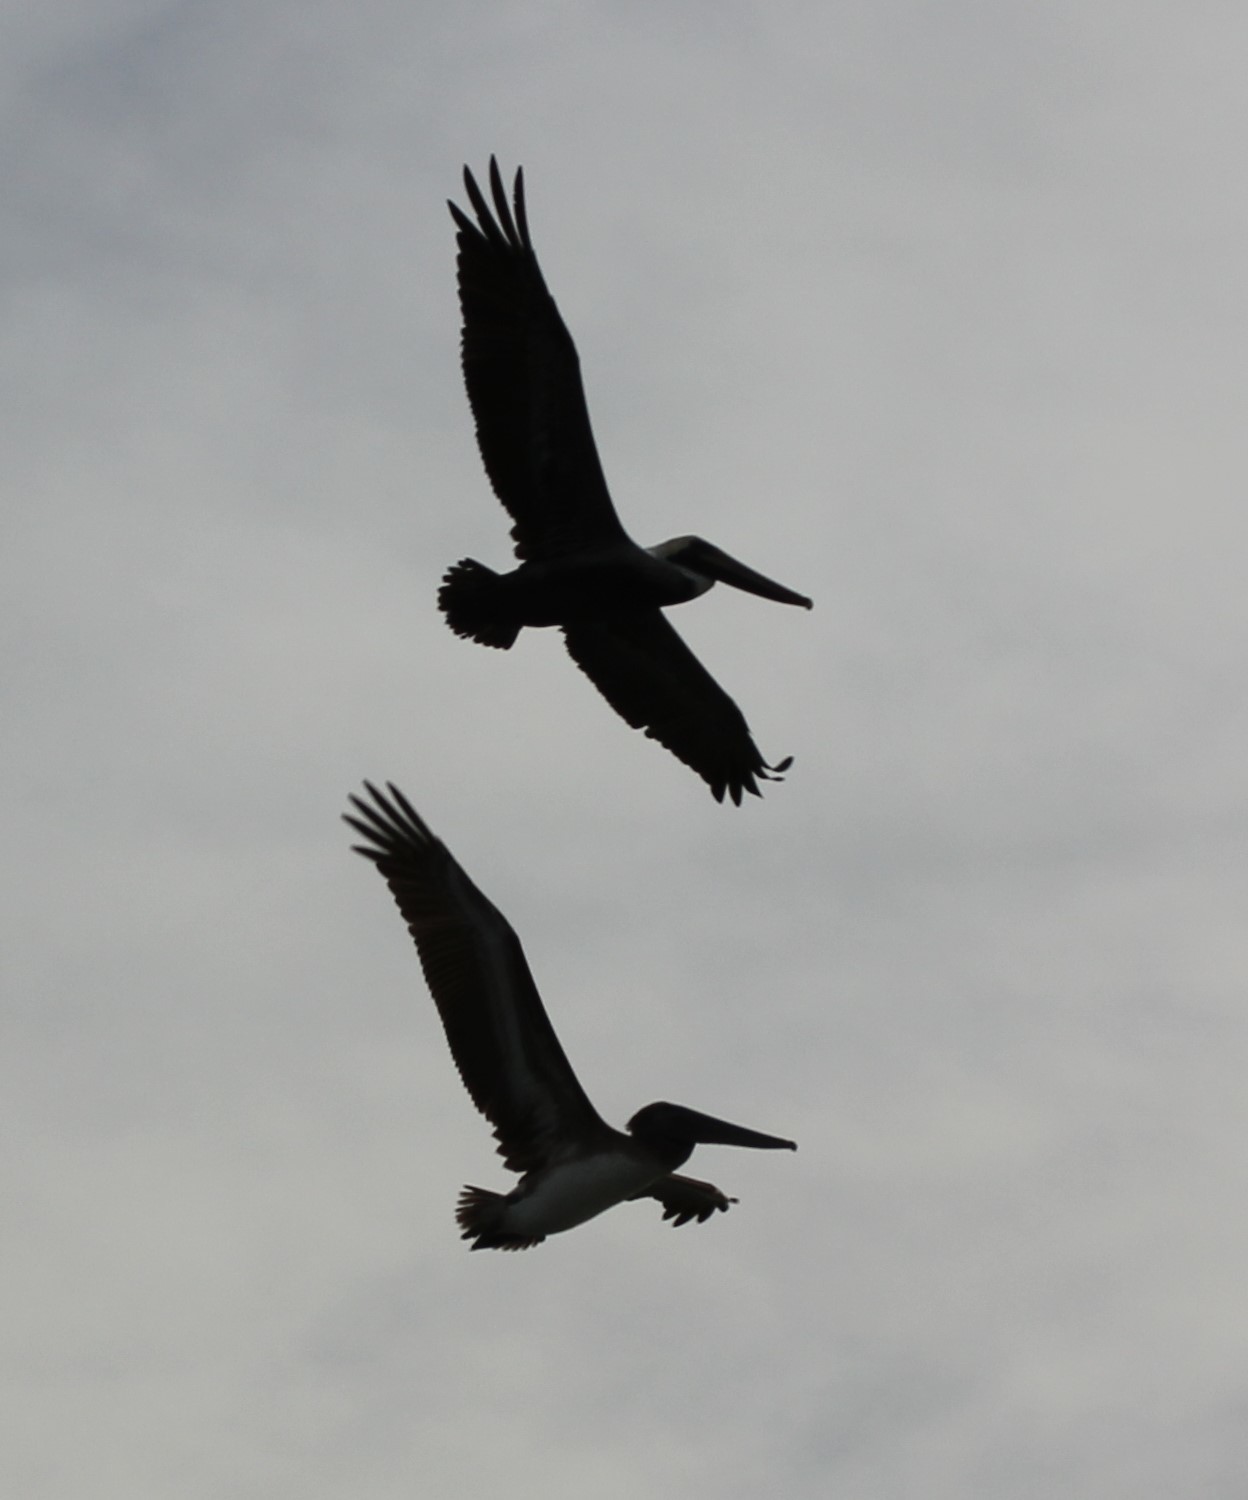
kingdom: Animalia
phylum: Chordata
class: Aves
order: Pelecaniformes
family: Pelecanidae
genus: Pelecanus
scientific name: Pelecanus occidentalis
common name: Brown pelican
